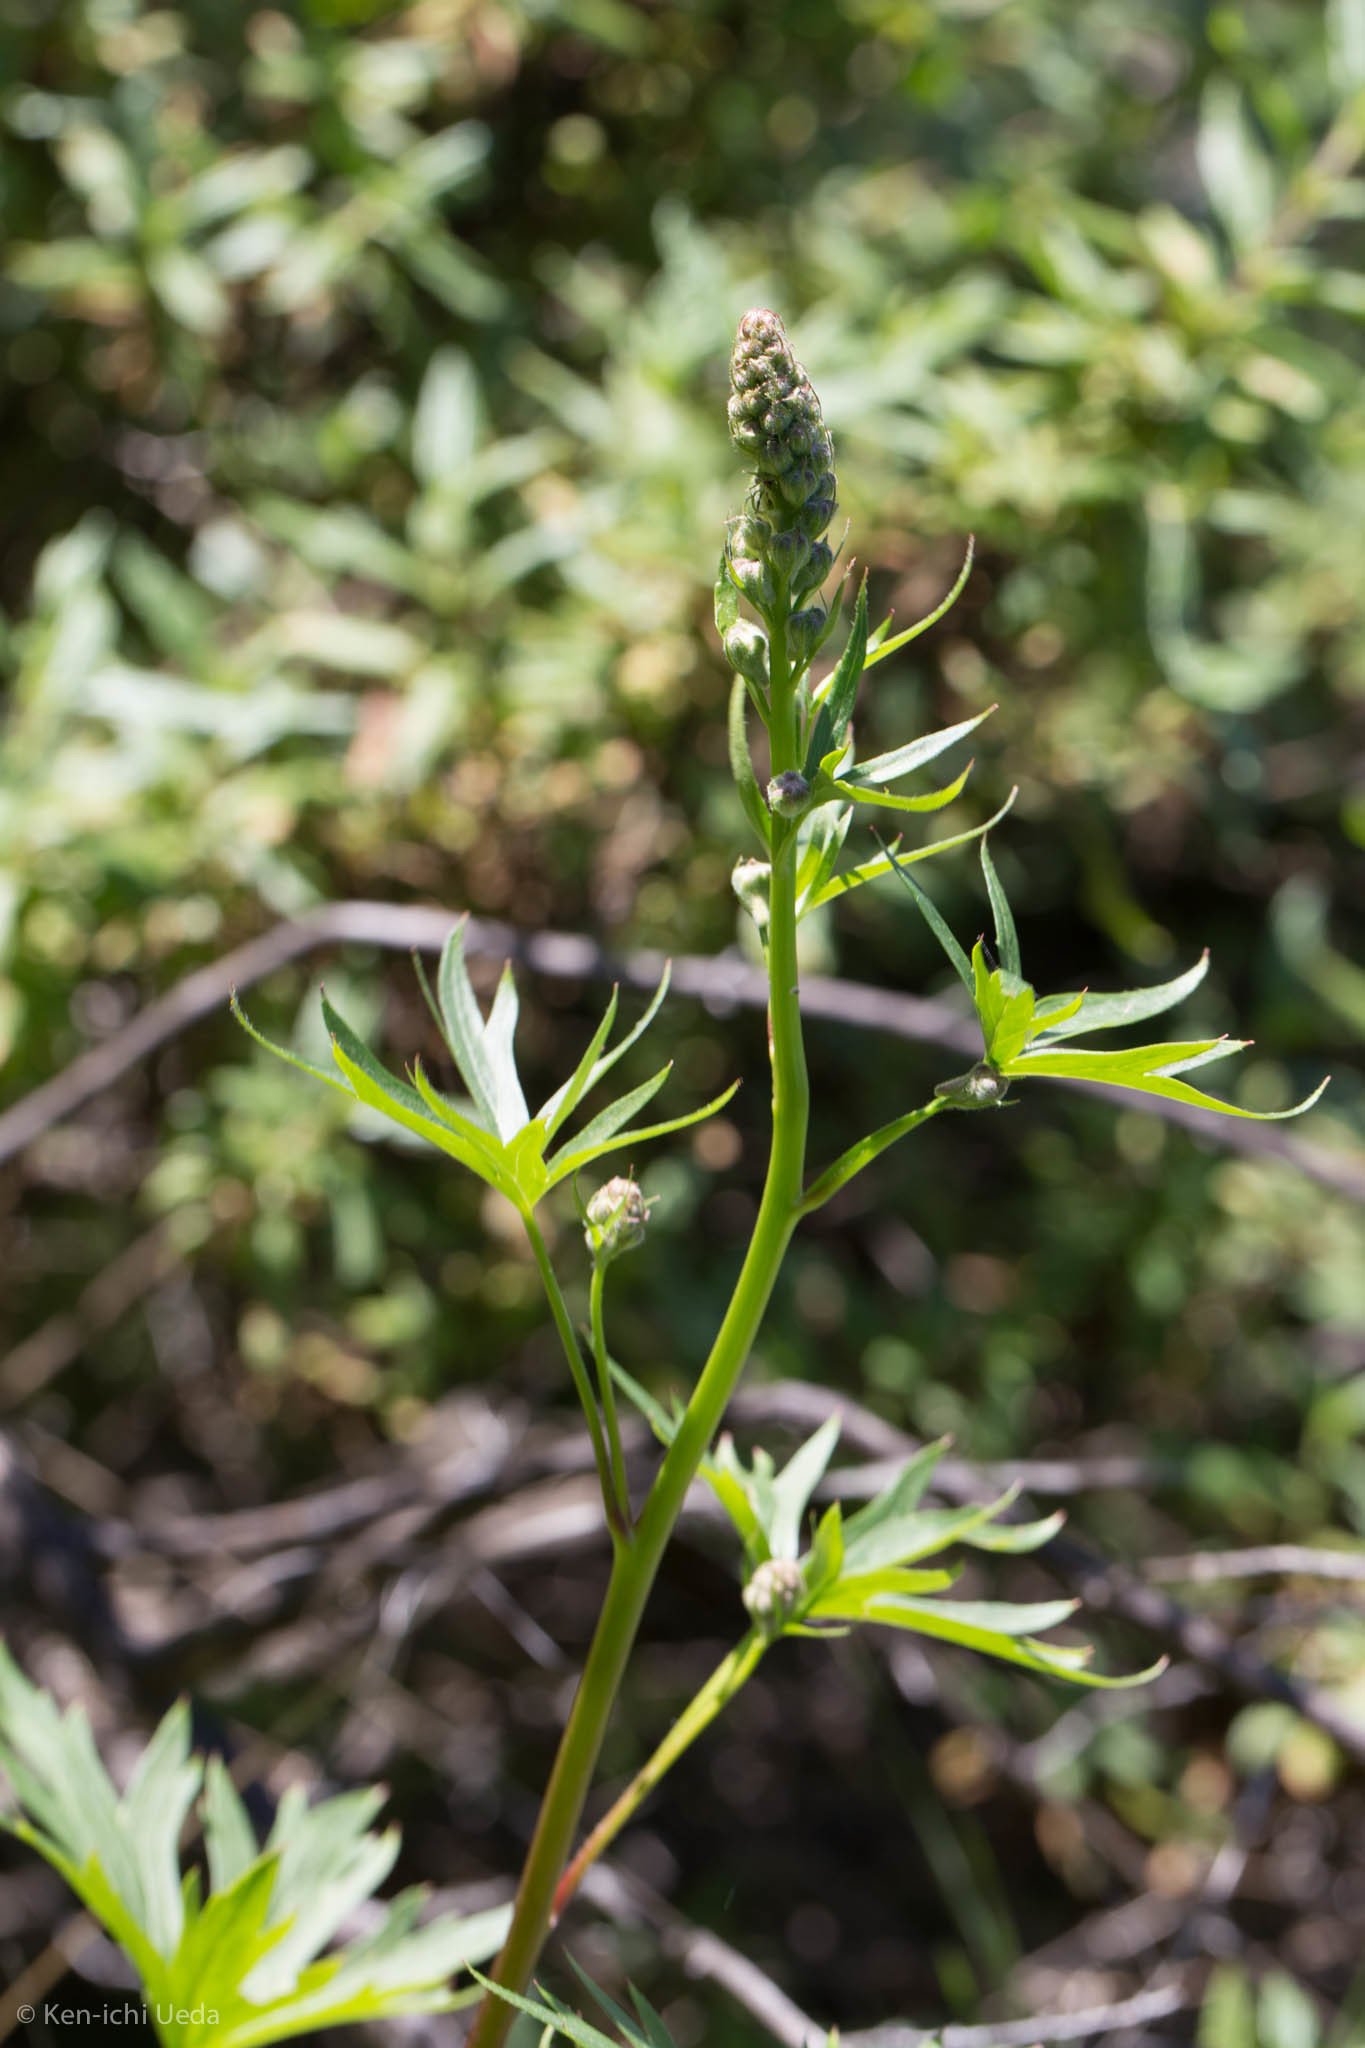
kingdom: Plantae
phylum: Tracheophyta
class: Magnoliopsida
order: Ranunculales
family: Ranunculaceae
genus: Delphinium
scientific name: Delphinium californicum
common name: California larkspur
